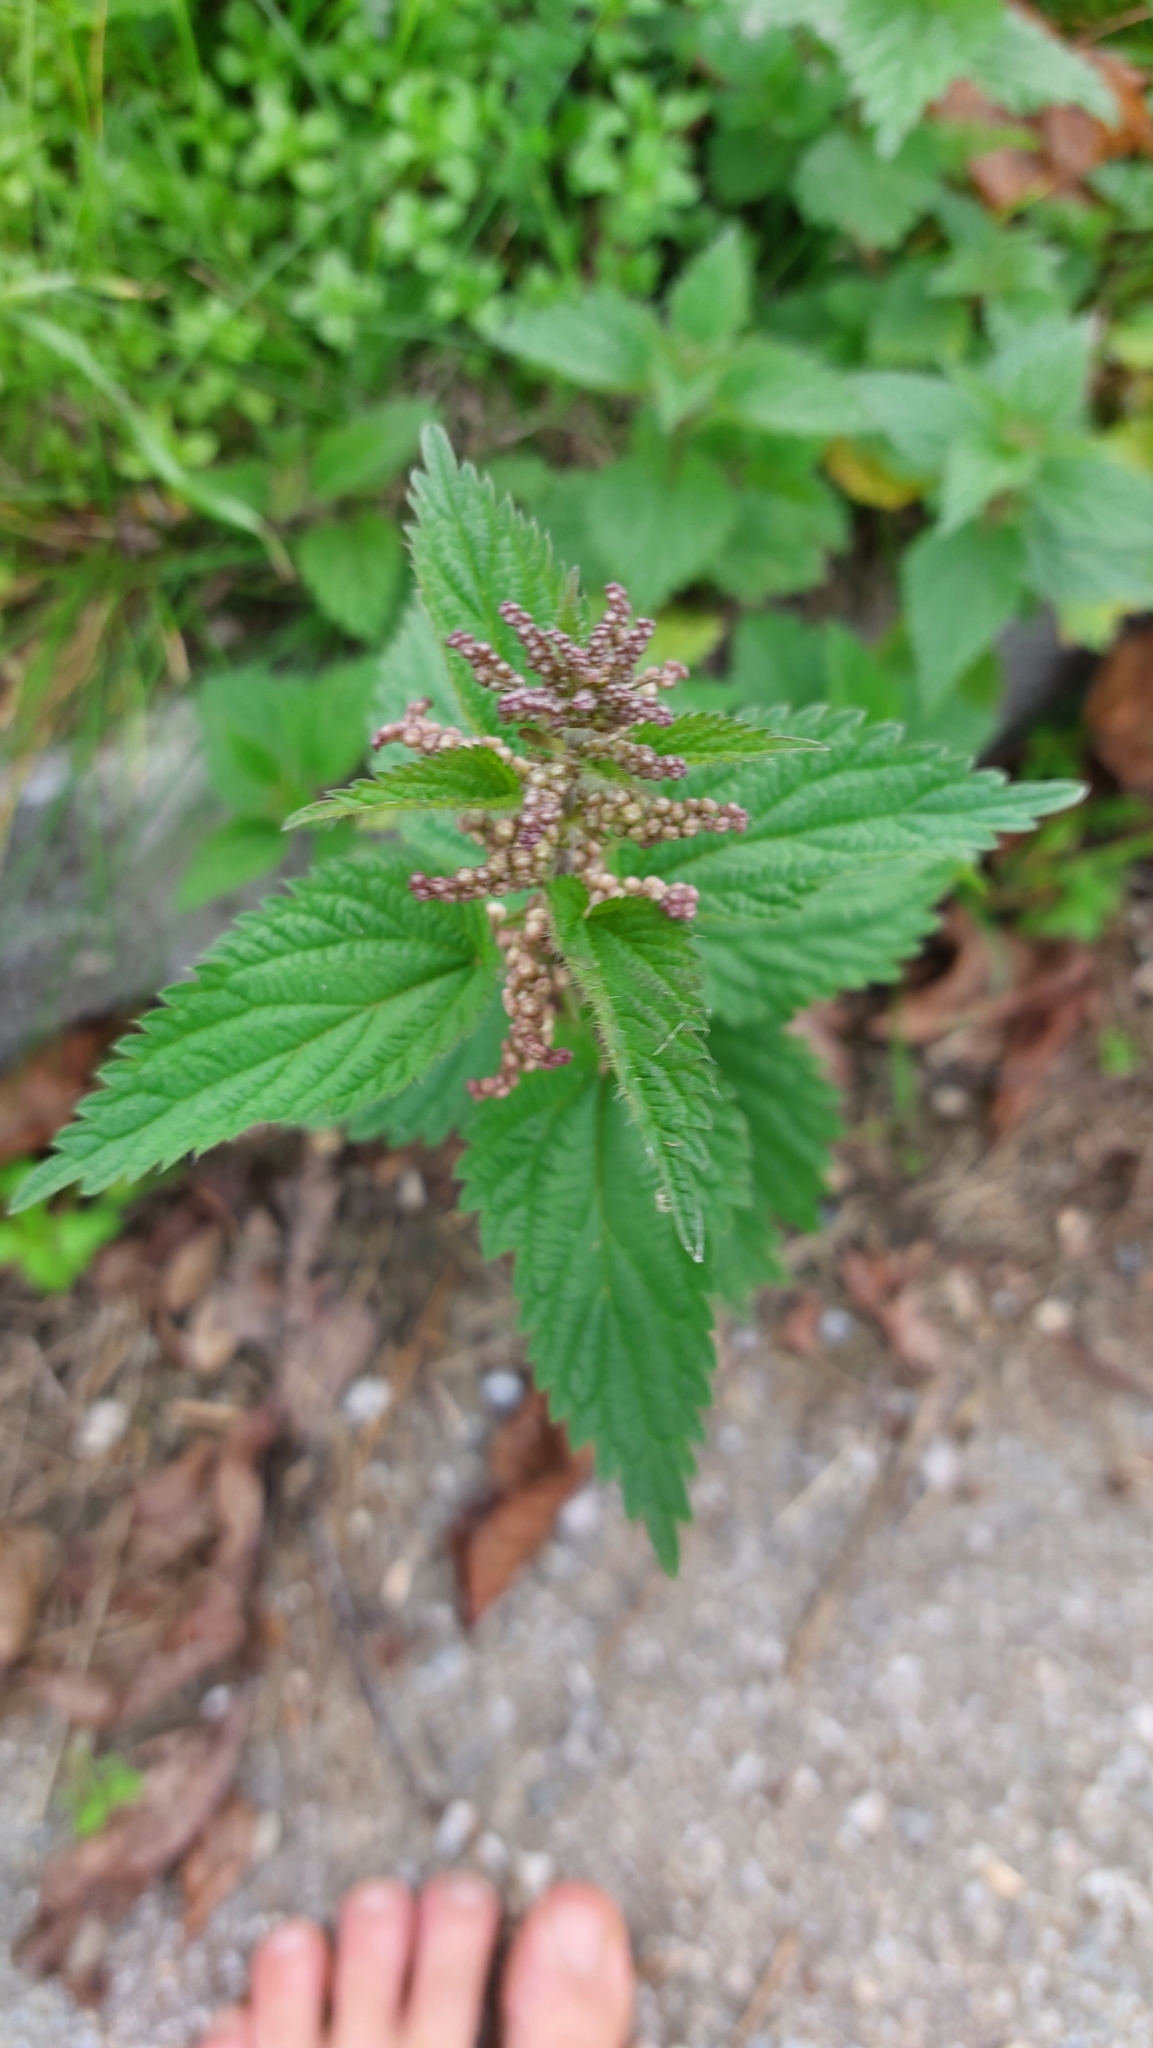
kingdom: Plantae
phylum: Tracheophyta
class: Magnoliopsida
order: Rosales
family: Urticaceae
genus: Urtica
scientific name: Urtica dioica
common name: Common nettle
